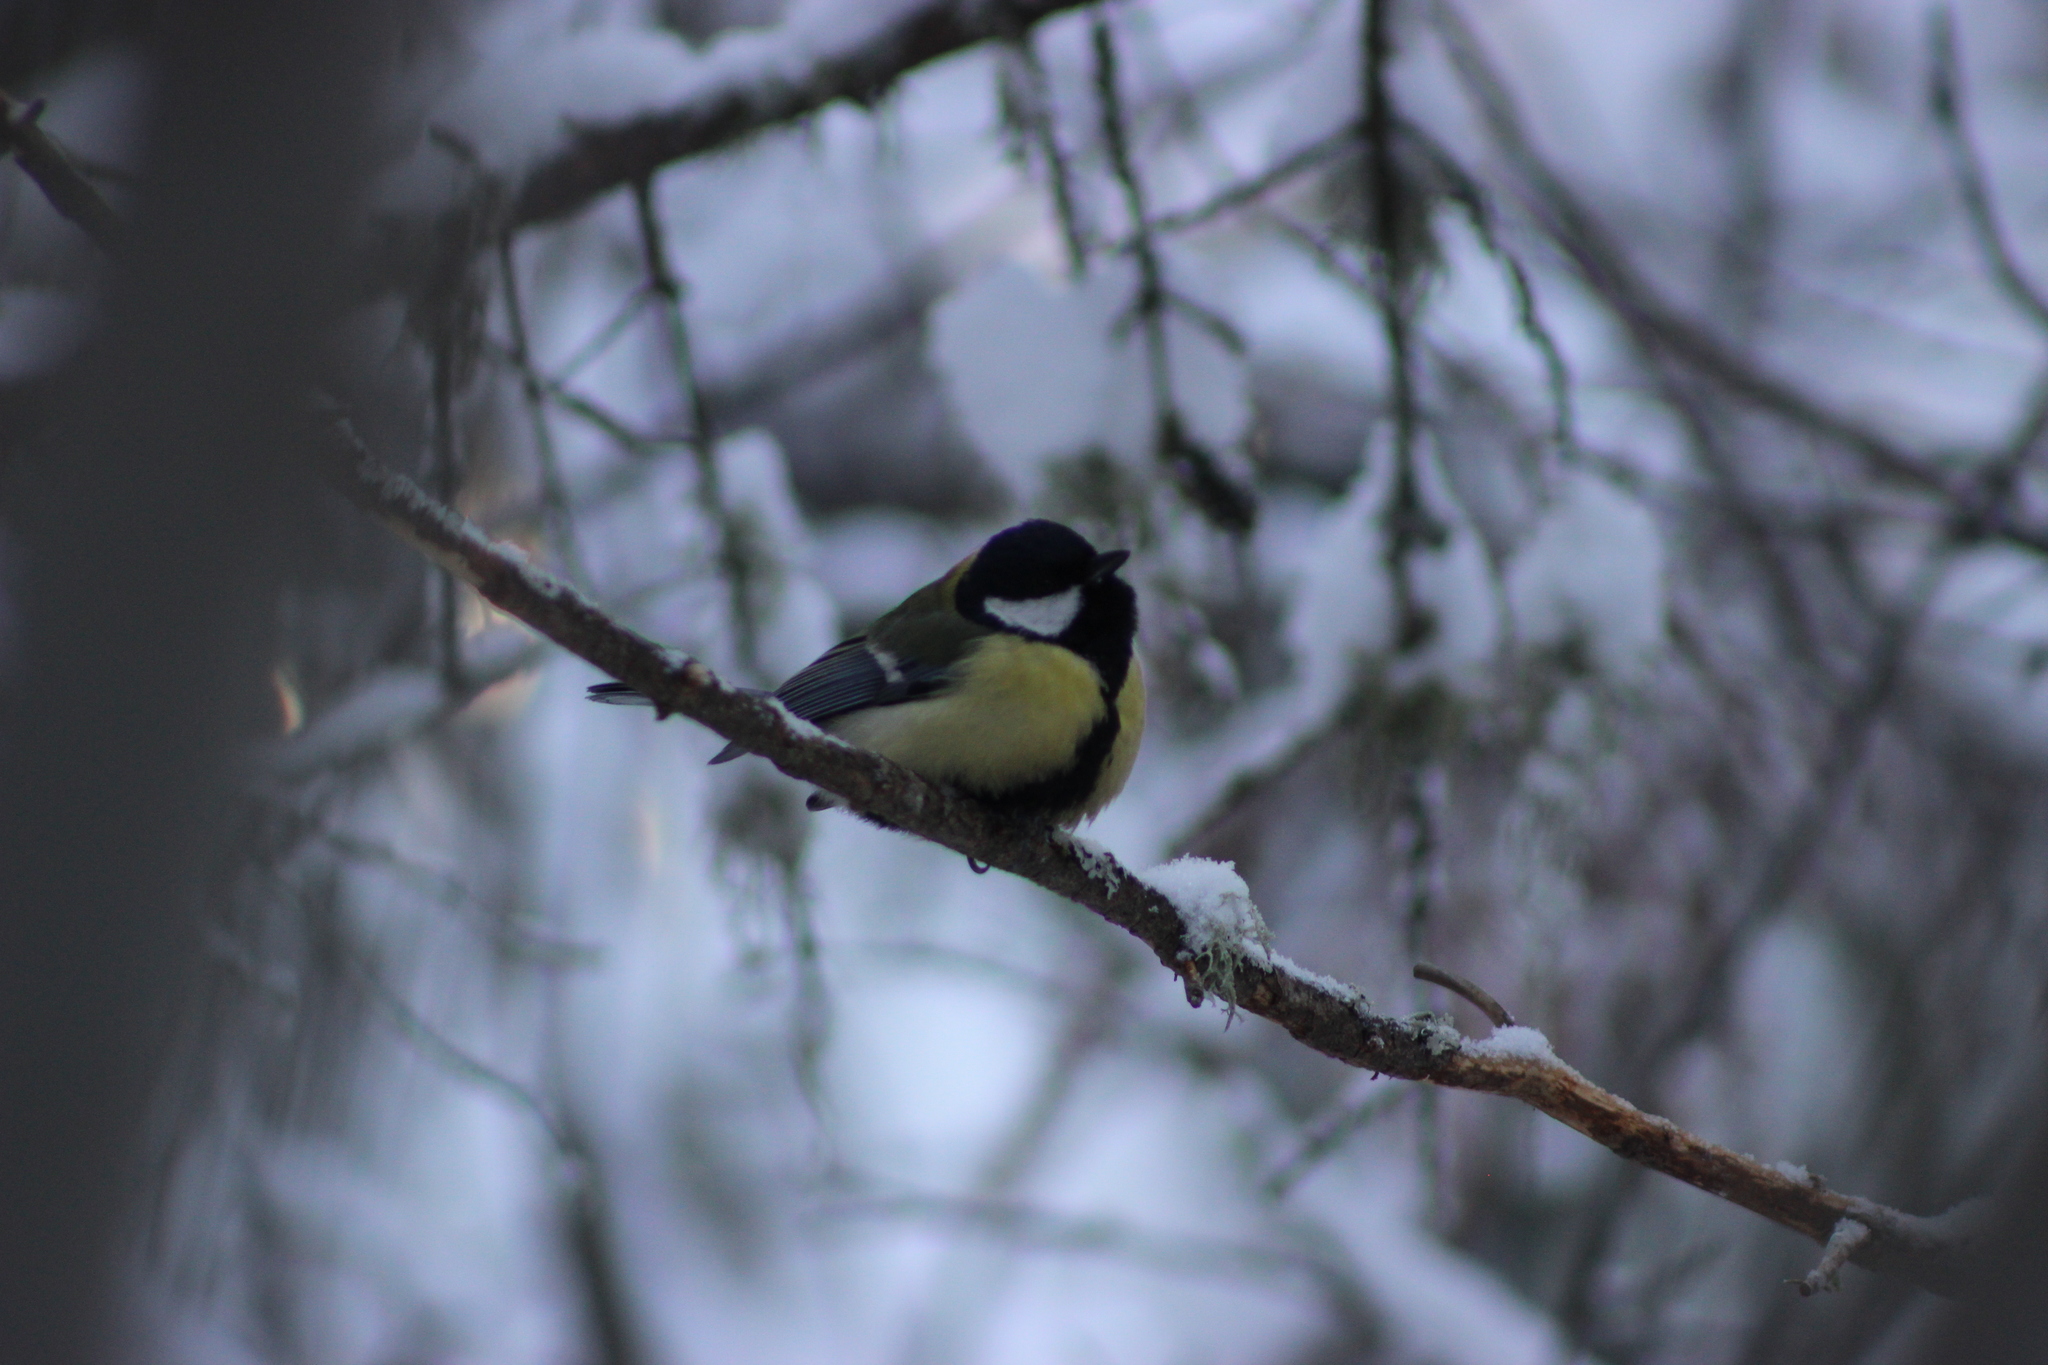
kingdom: Animalia
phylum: Chordata
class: Aves
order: Passeriformes
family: Paridae
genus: Parus
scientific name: Parus major
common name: Great tit
